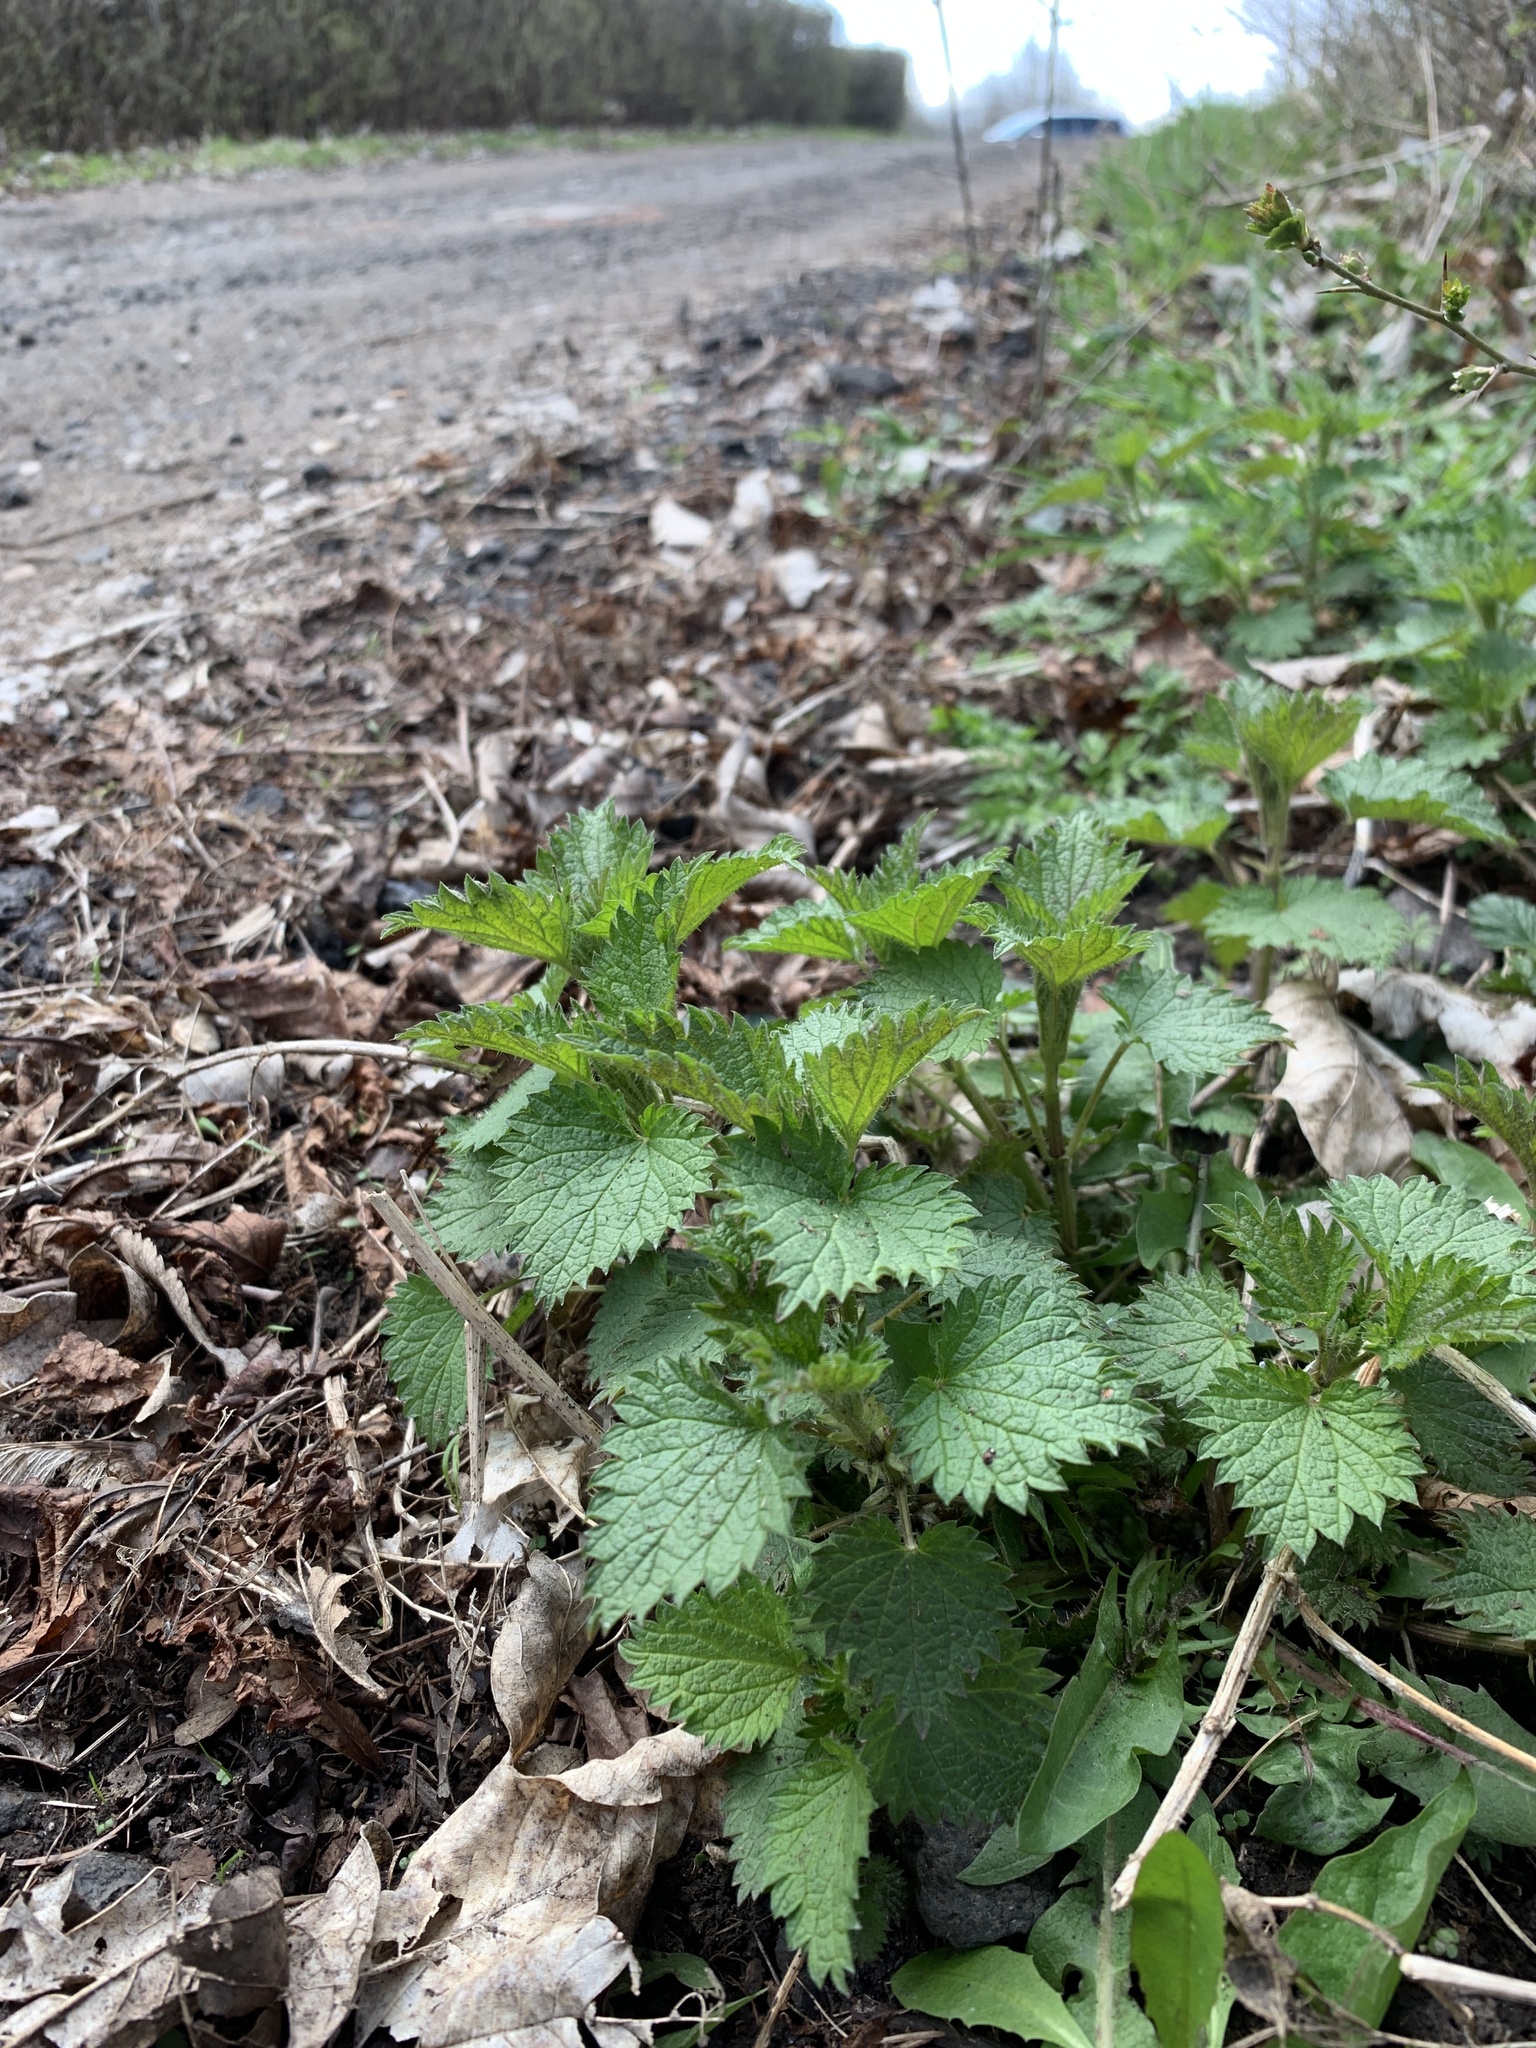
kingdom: Plantae
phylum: Tracheophyta
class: Magnoliopsida
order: Rosales
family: Urticaceae
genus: Urtica
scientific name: Urtica dioica
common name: Common nettle
